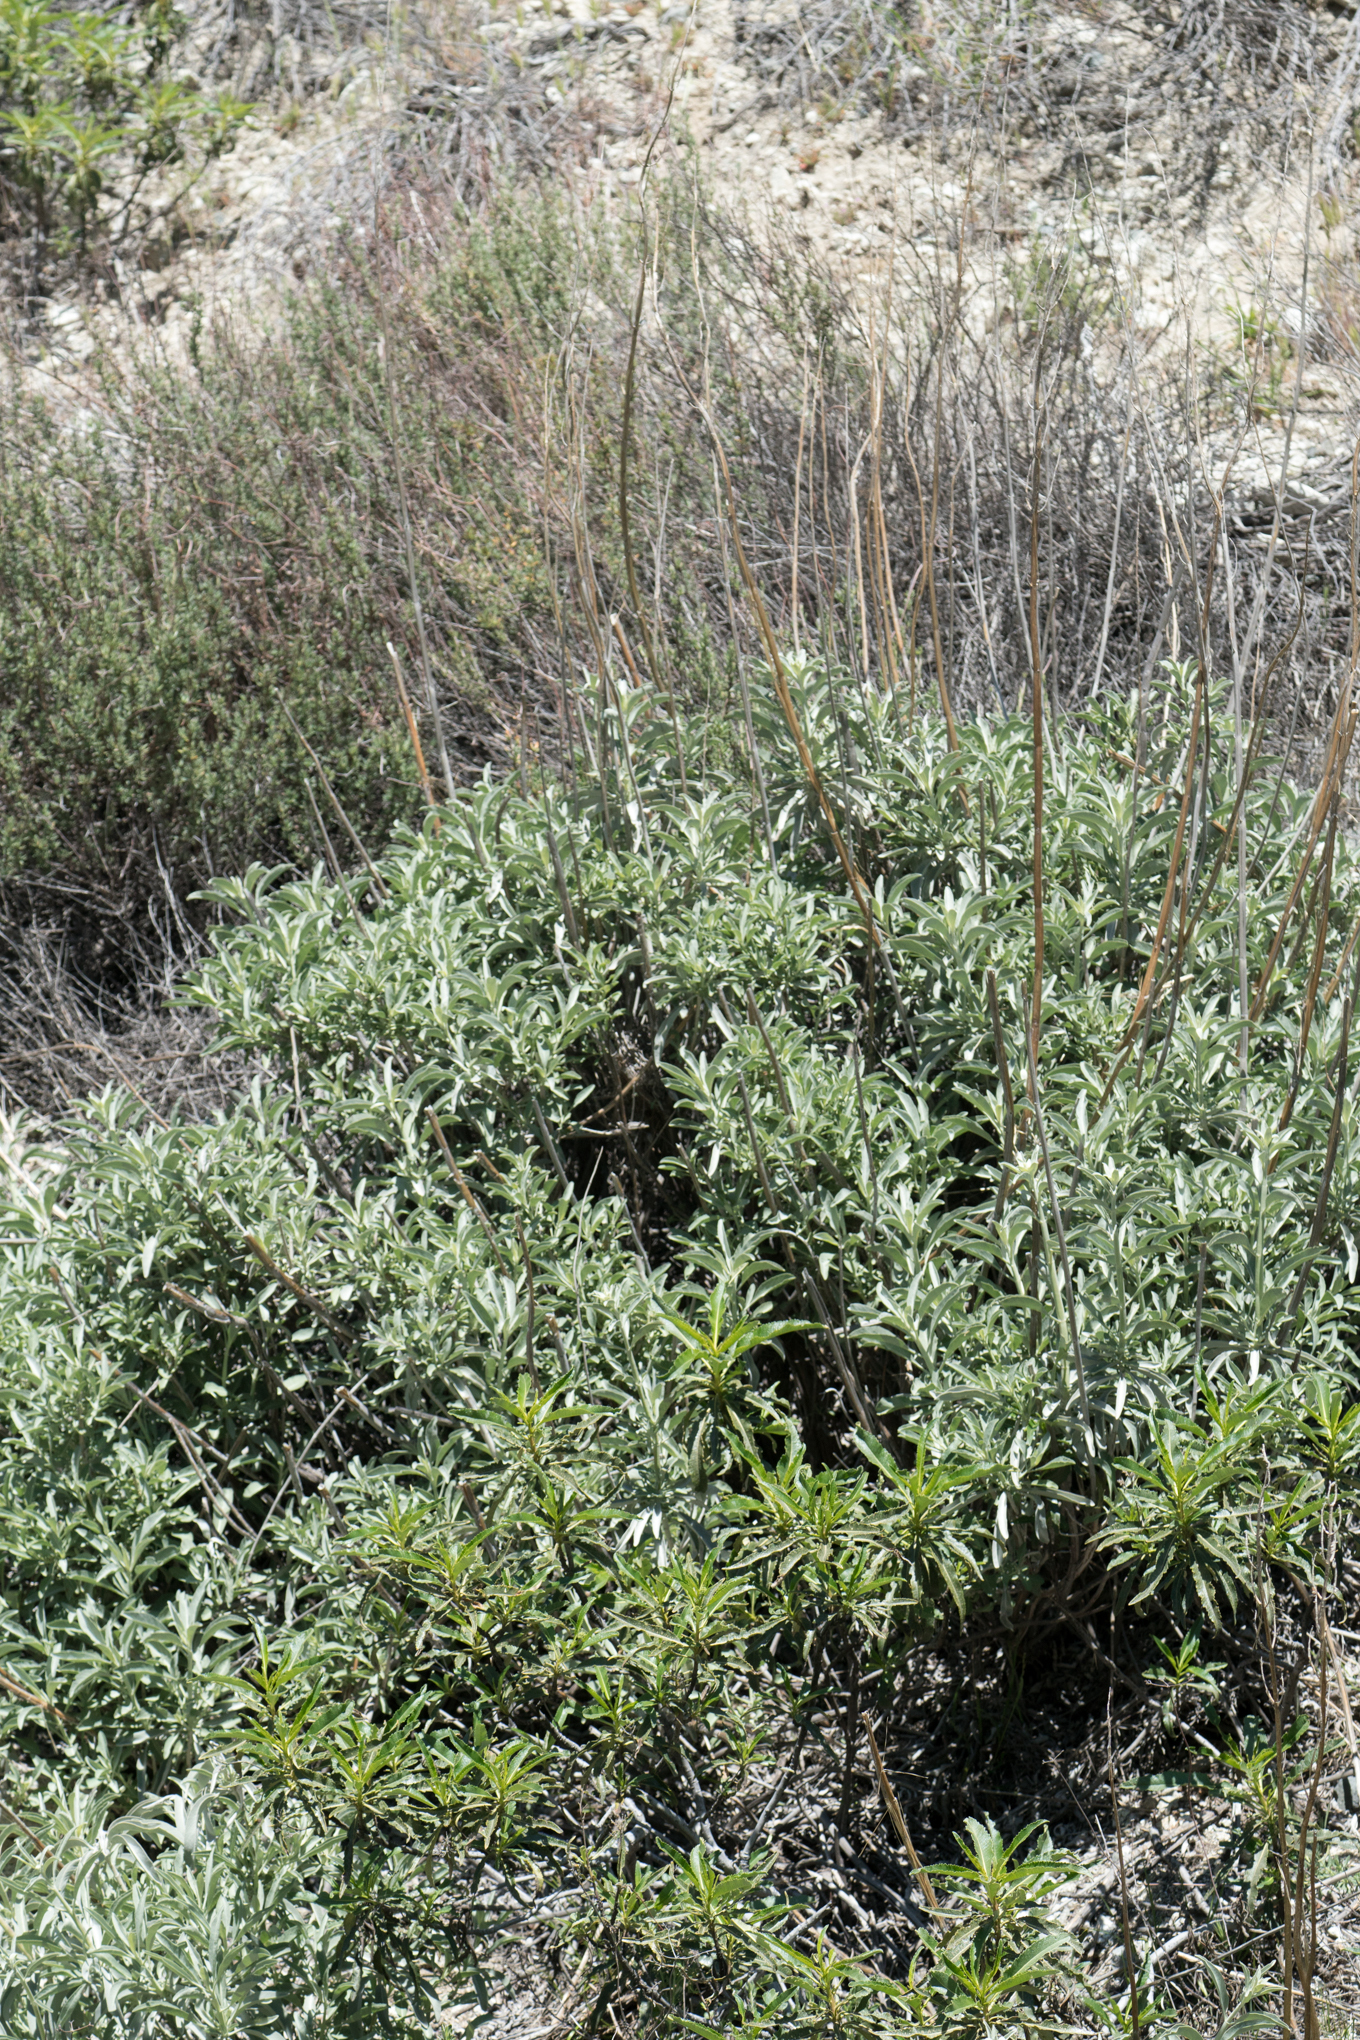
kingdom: Plantae
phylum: Tracheophyta
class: Magnoliopsida
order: Lamiales
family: Lamiaceae
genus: Salvia
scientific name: Salvia apiana
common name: White sage
